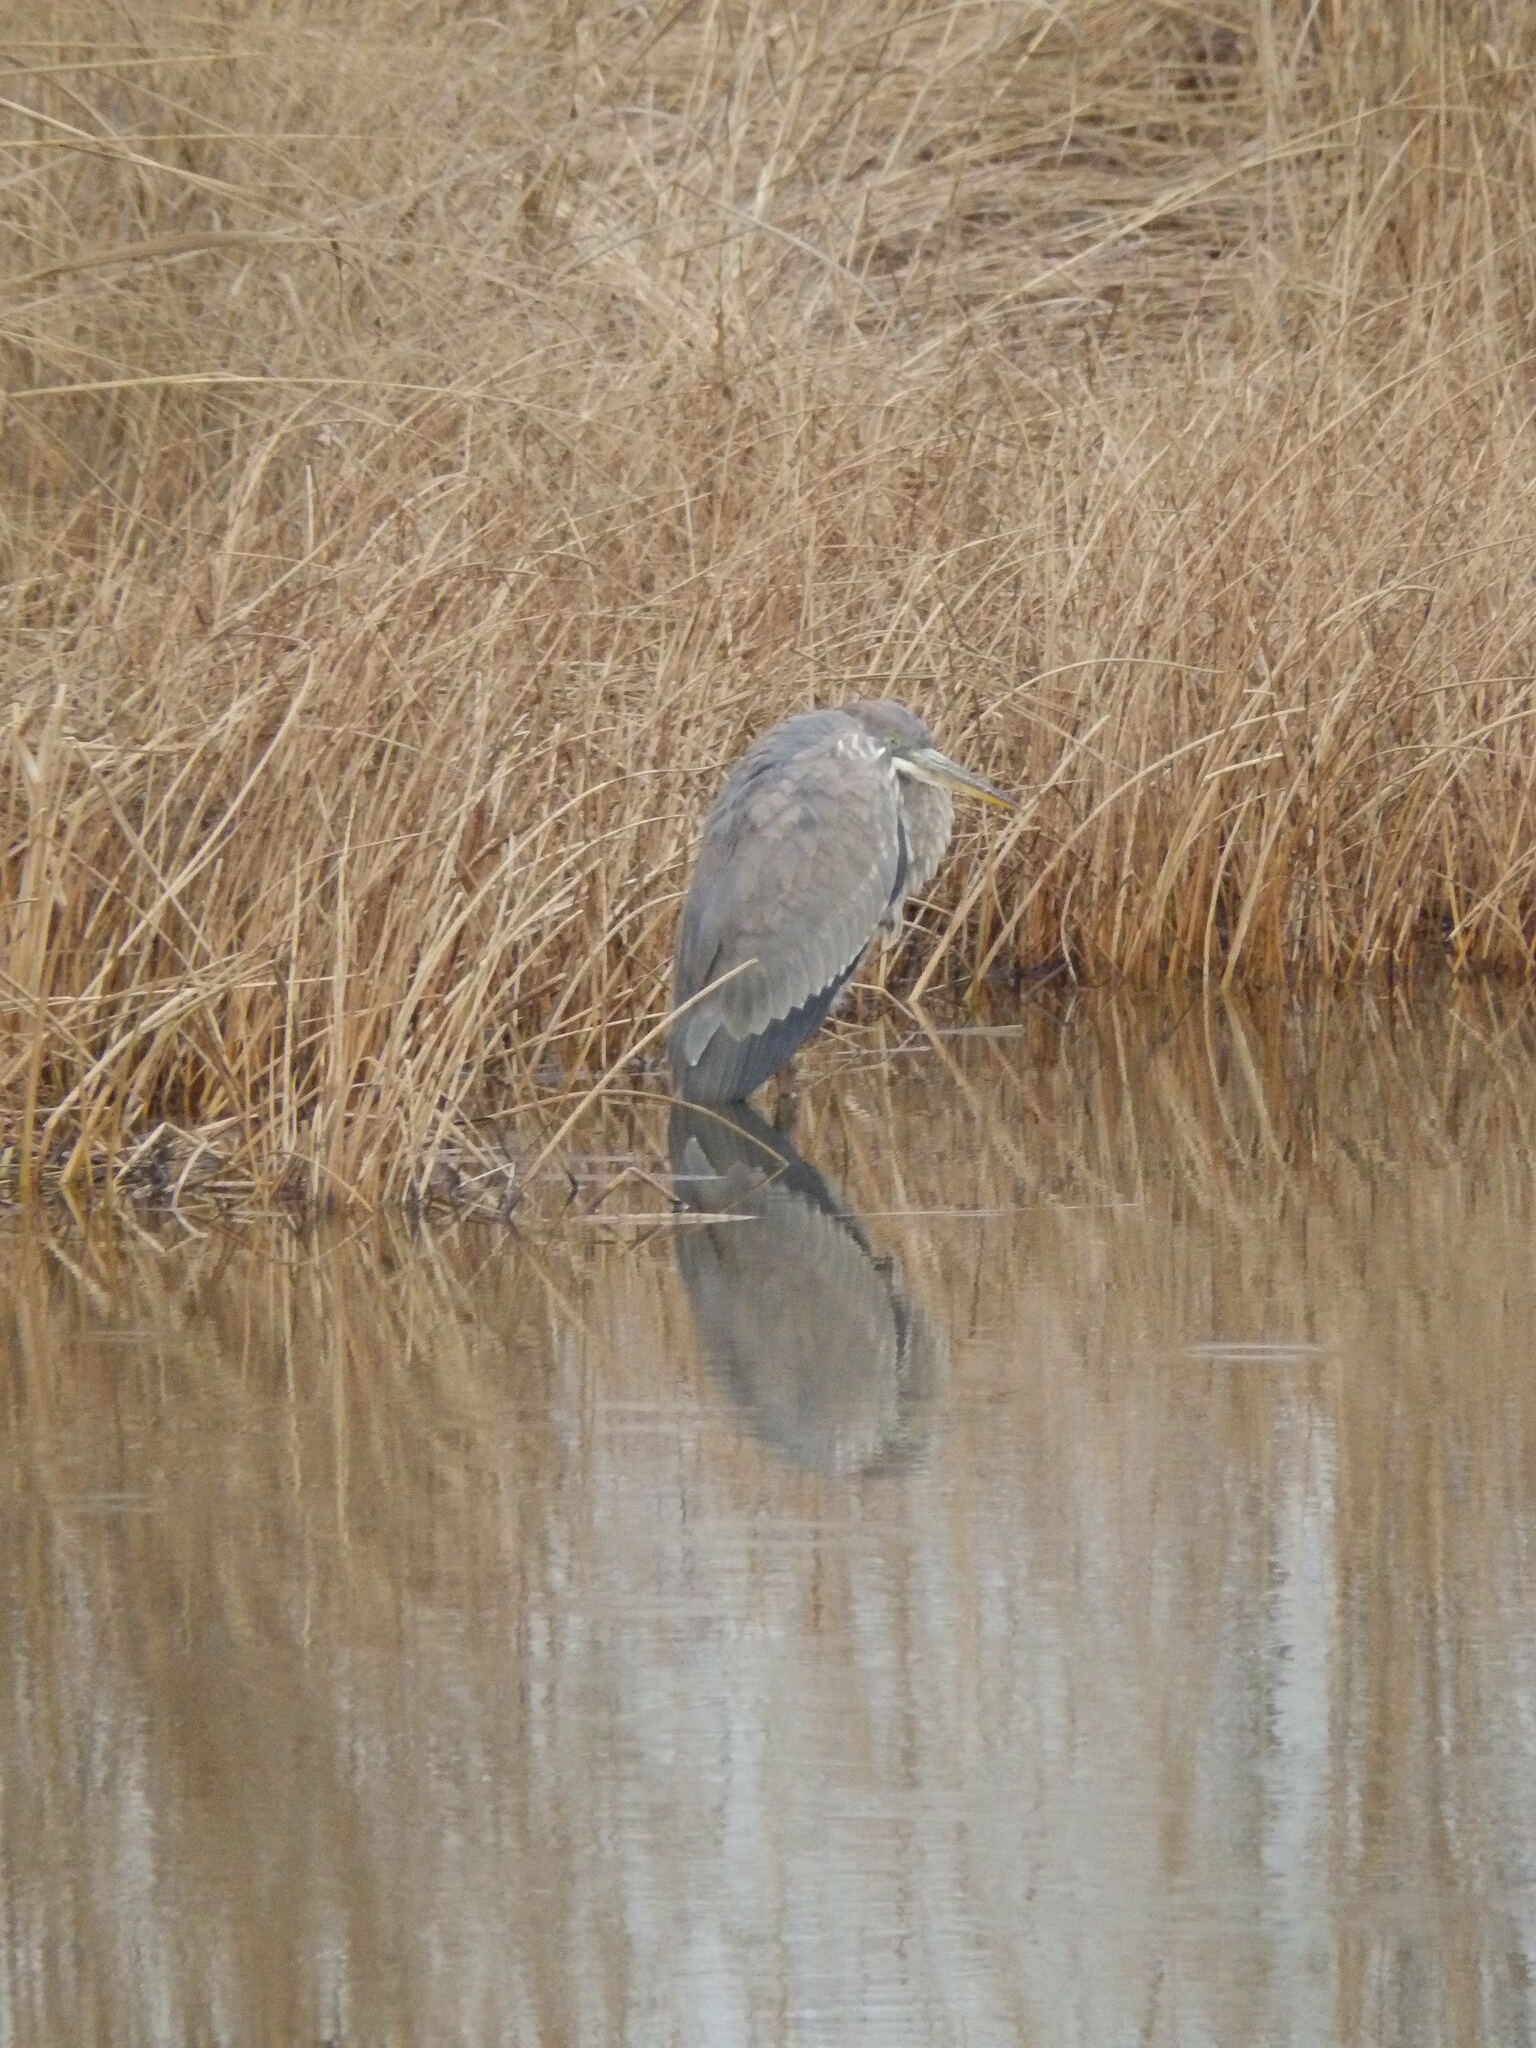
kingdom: Animalia
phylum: Chordata
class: Aves
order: Pelecaniformes
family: Ardeidae
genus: Ardea
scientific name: Ardea herodias
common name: Great blue heron
